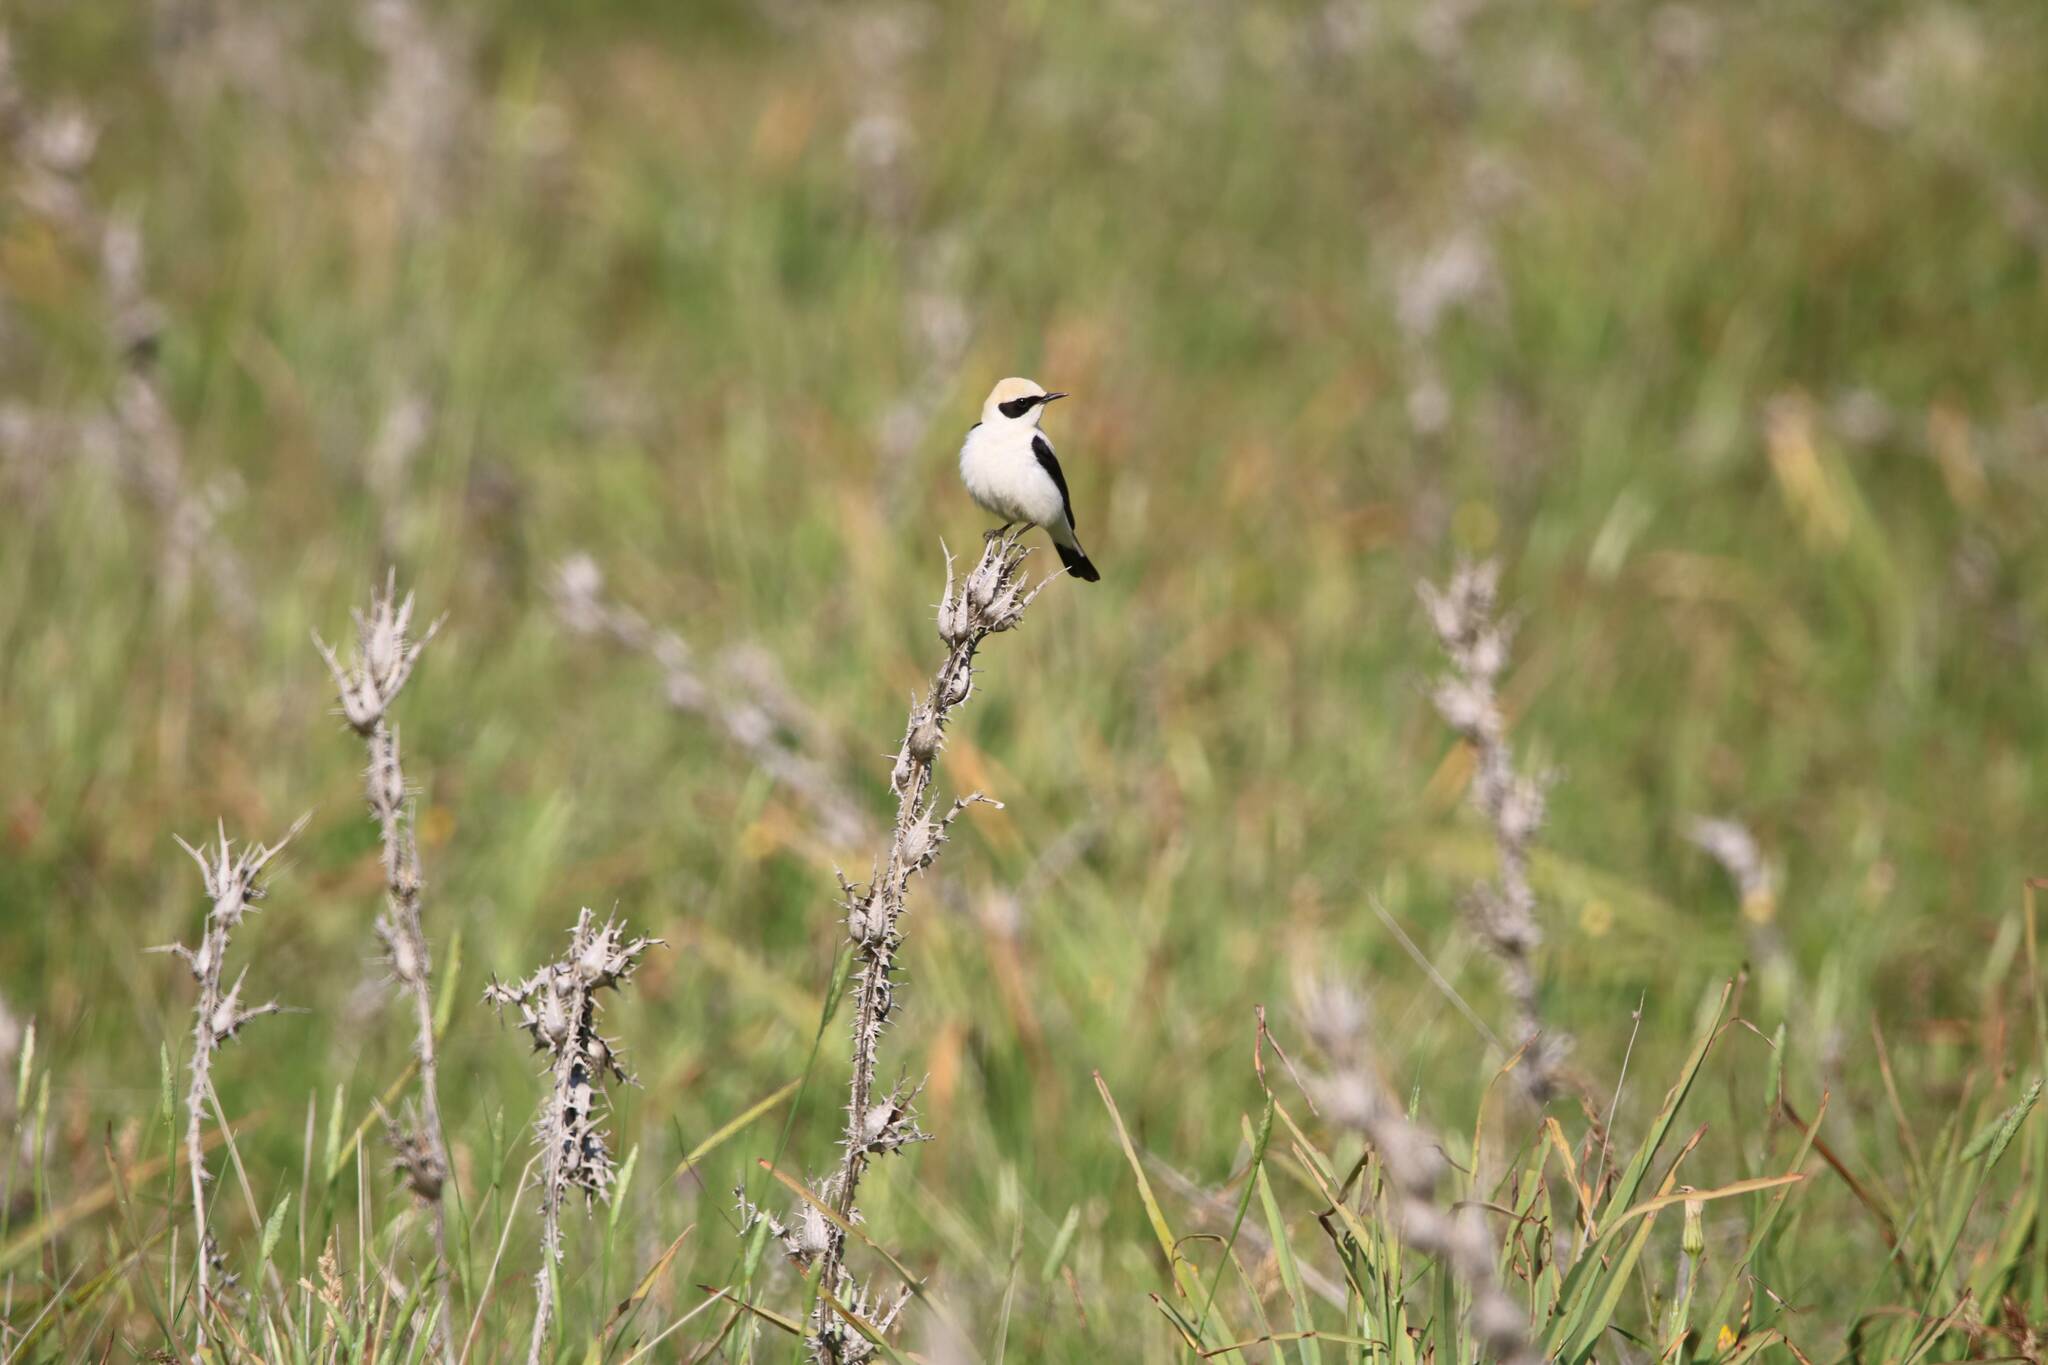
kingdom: Animalia
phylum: Chordata
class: Aves
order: Passeriformes
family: Muscicapidae
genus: Oenanthe
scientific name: Oenanthe hispanica
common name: Black-eared wheatear
